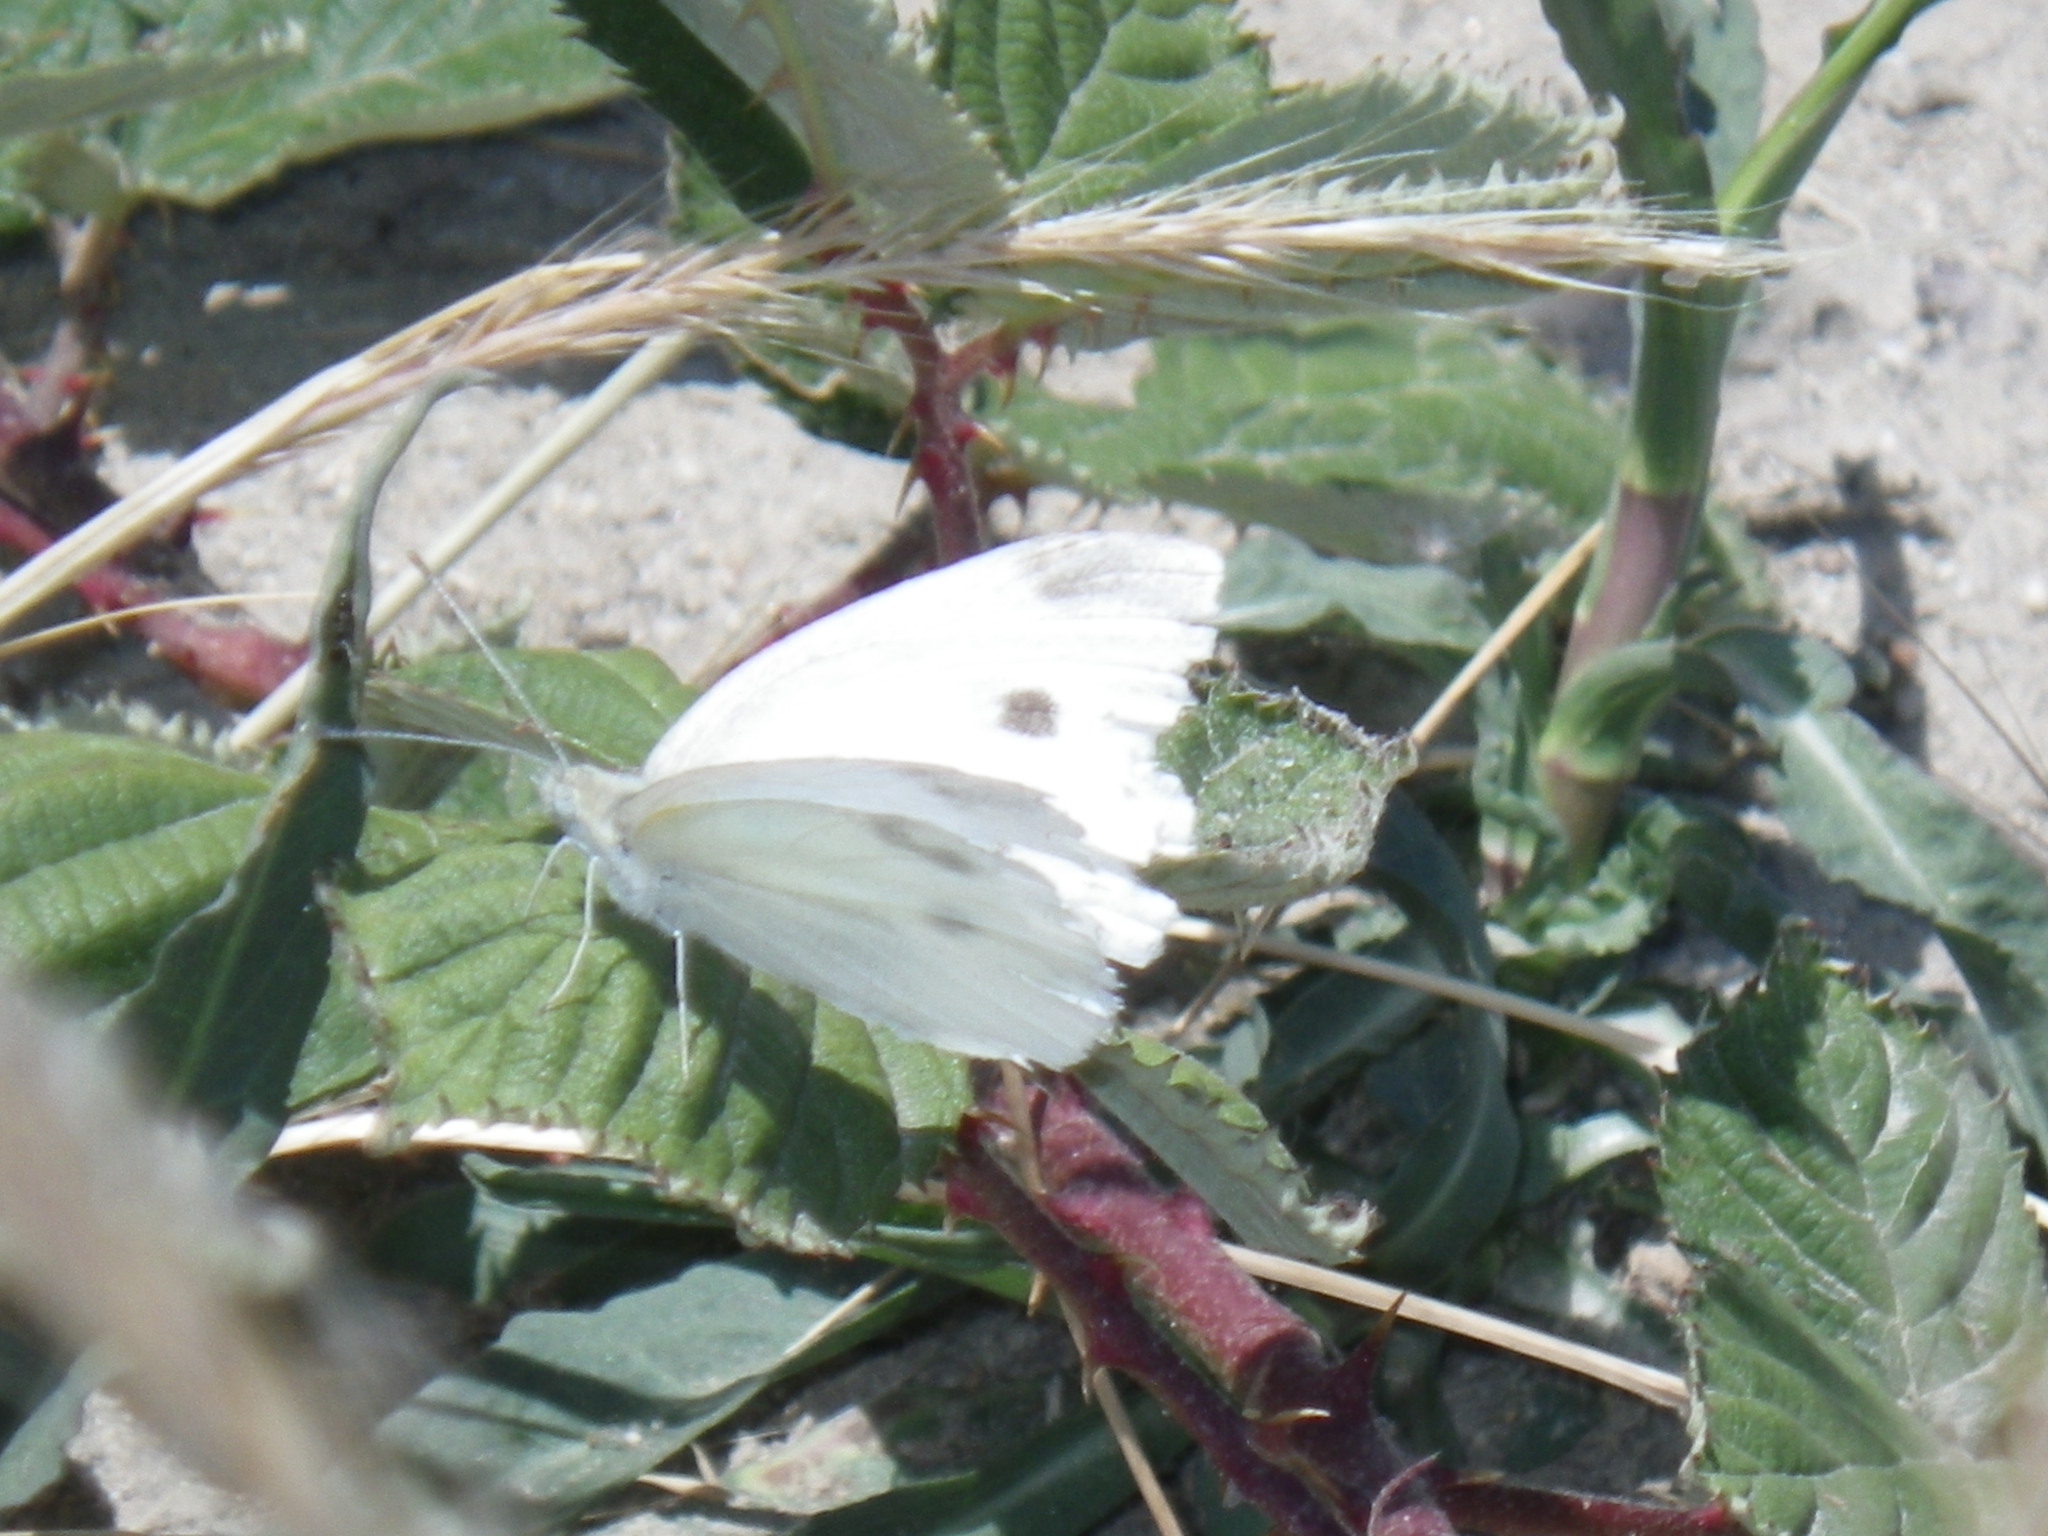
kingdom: Animalia
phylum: Arthropoda
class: Insecta
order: Lepidoptera
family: Pieridae
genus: Pieris
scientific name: Pieris rapae
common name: Small white
